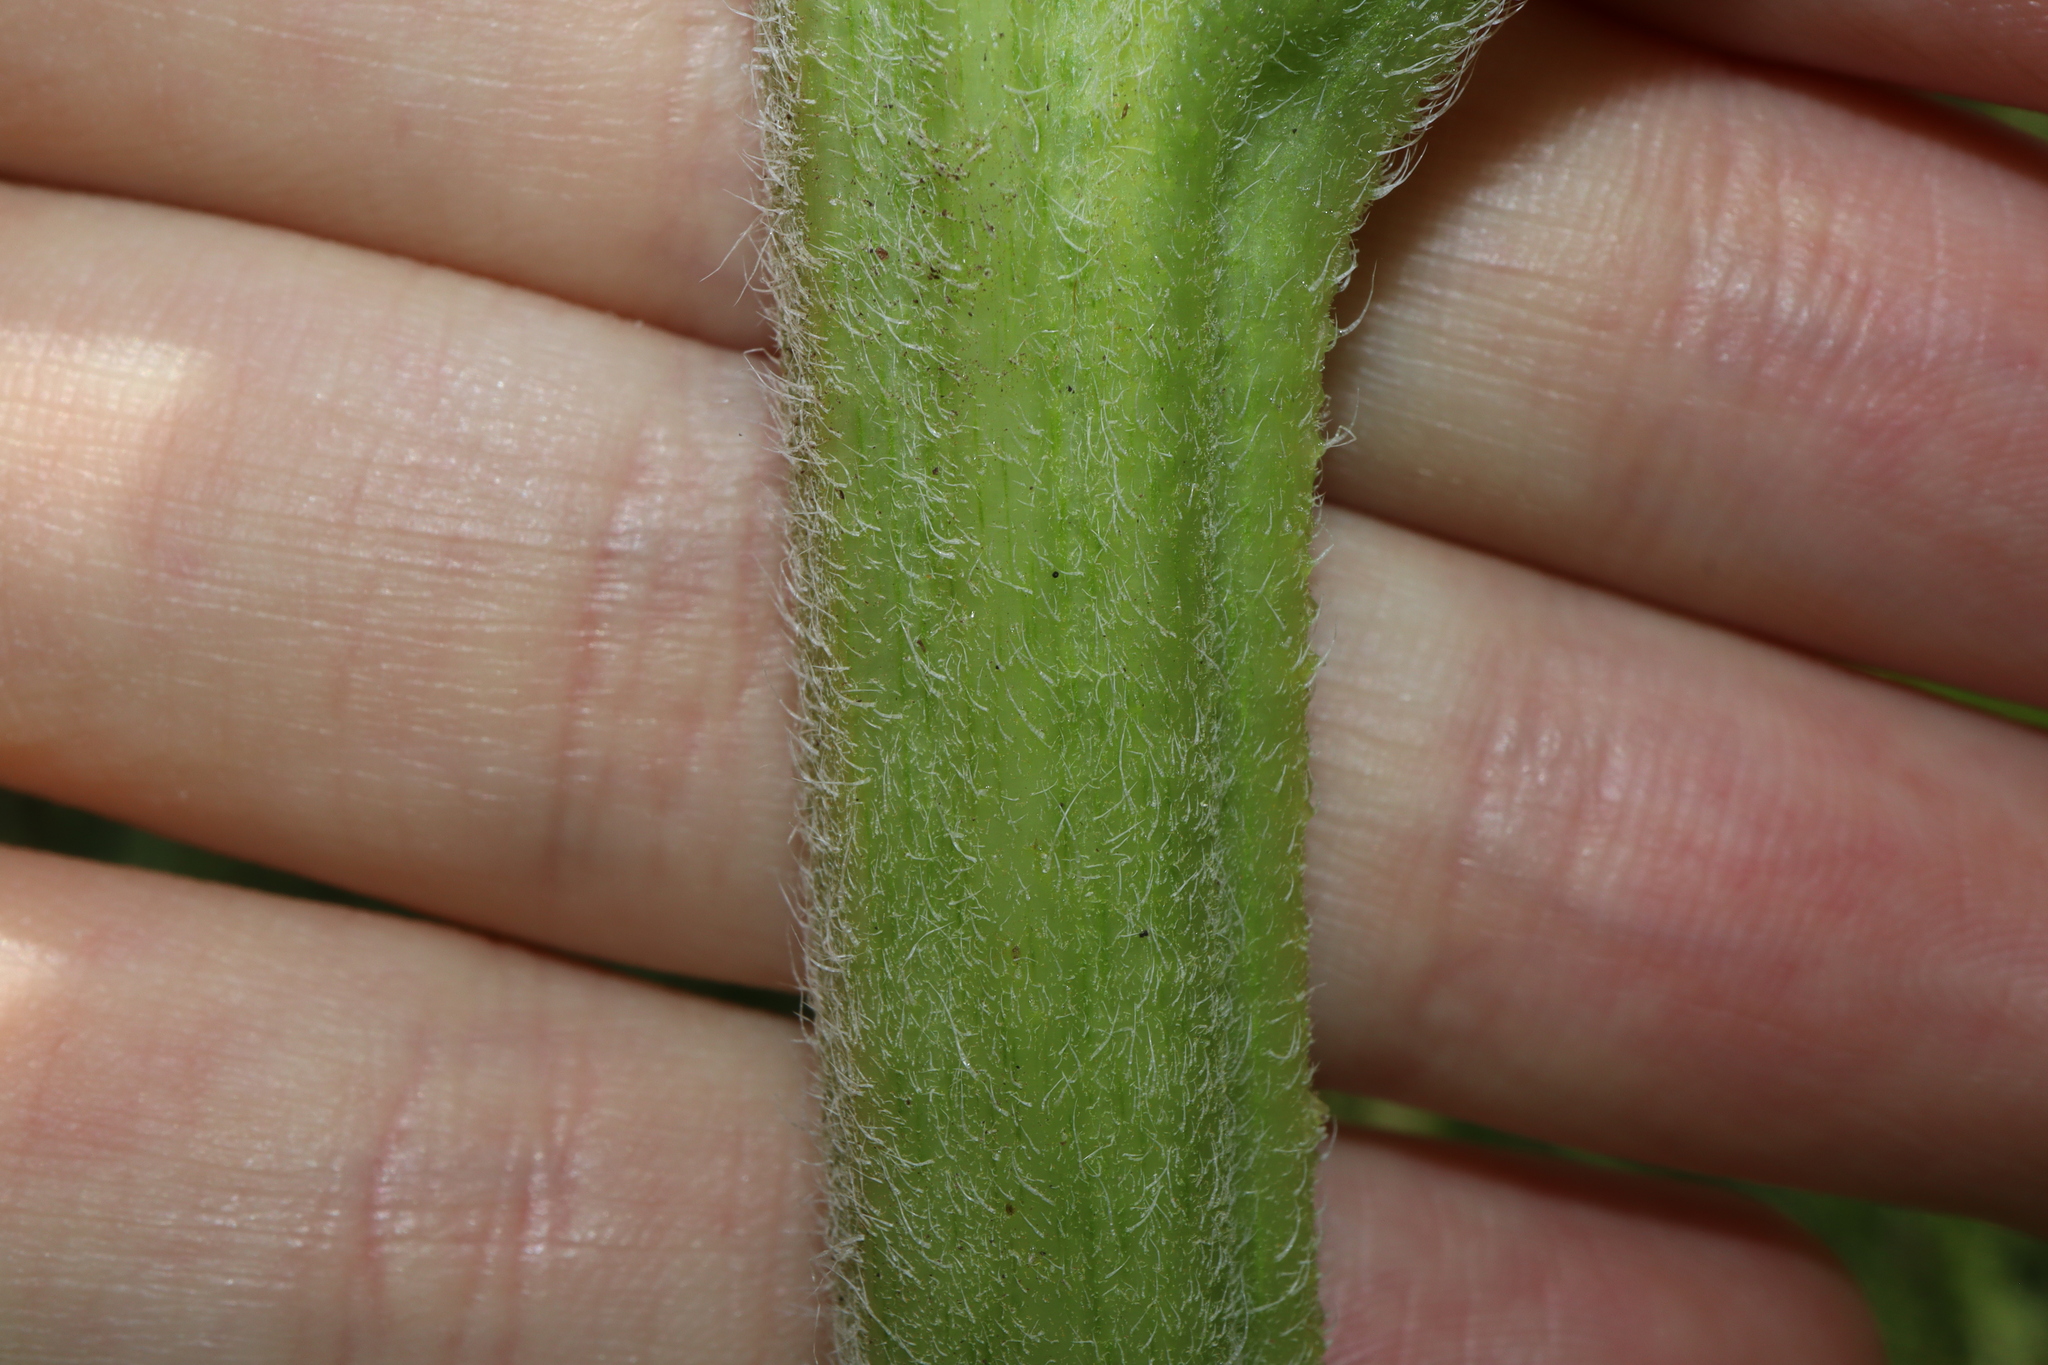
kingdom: Plantae
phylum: Tracheophyta
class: Magnoliopsida
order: Asterales
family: Asteraceae
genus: Helianthus
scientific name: Helianthus annuus
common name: Sunflower
